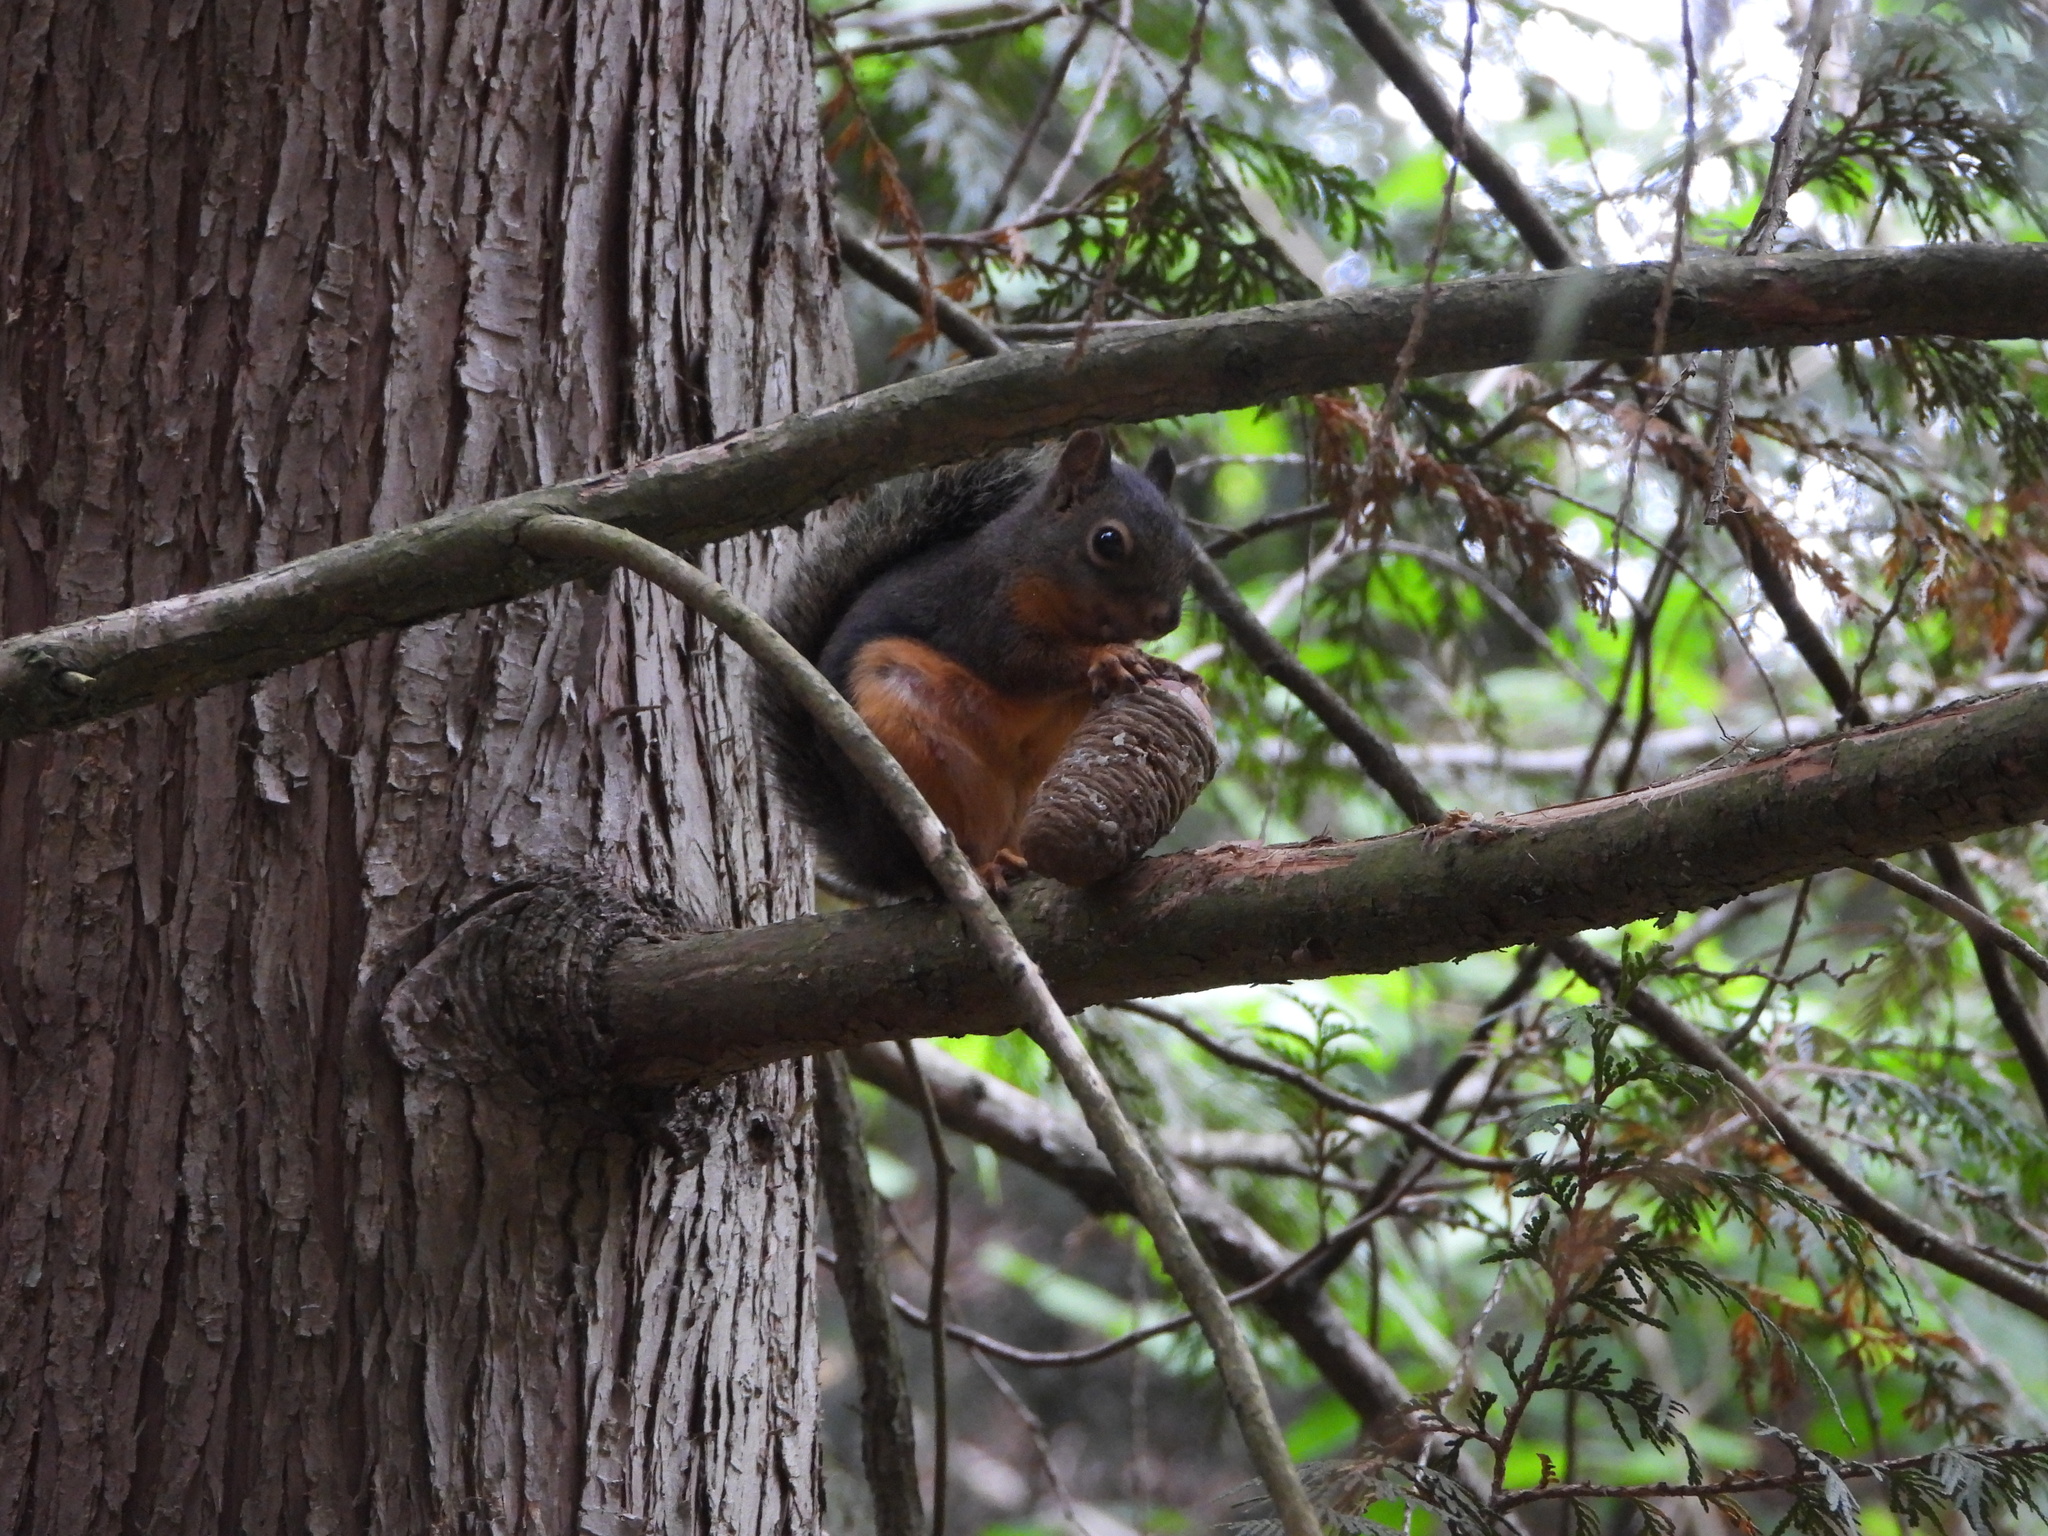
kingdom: Animalia
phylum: Chordata
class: Mammalia
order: Rodentia
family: Sciuridae
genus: Tamiasciurus
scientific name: Tamiasciurus douglasii
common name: Douglas's squirrel
